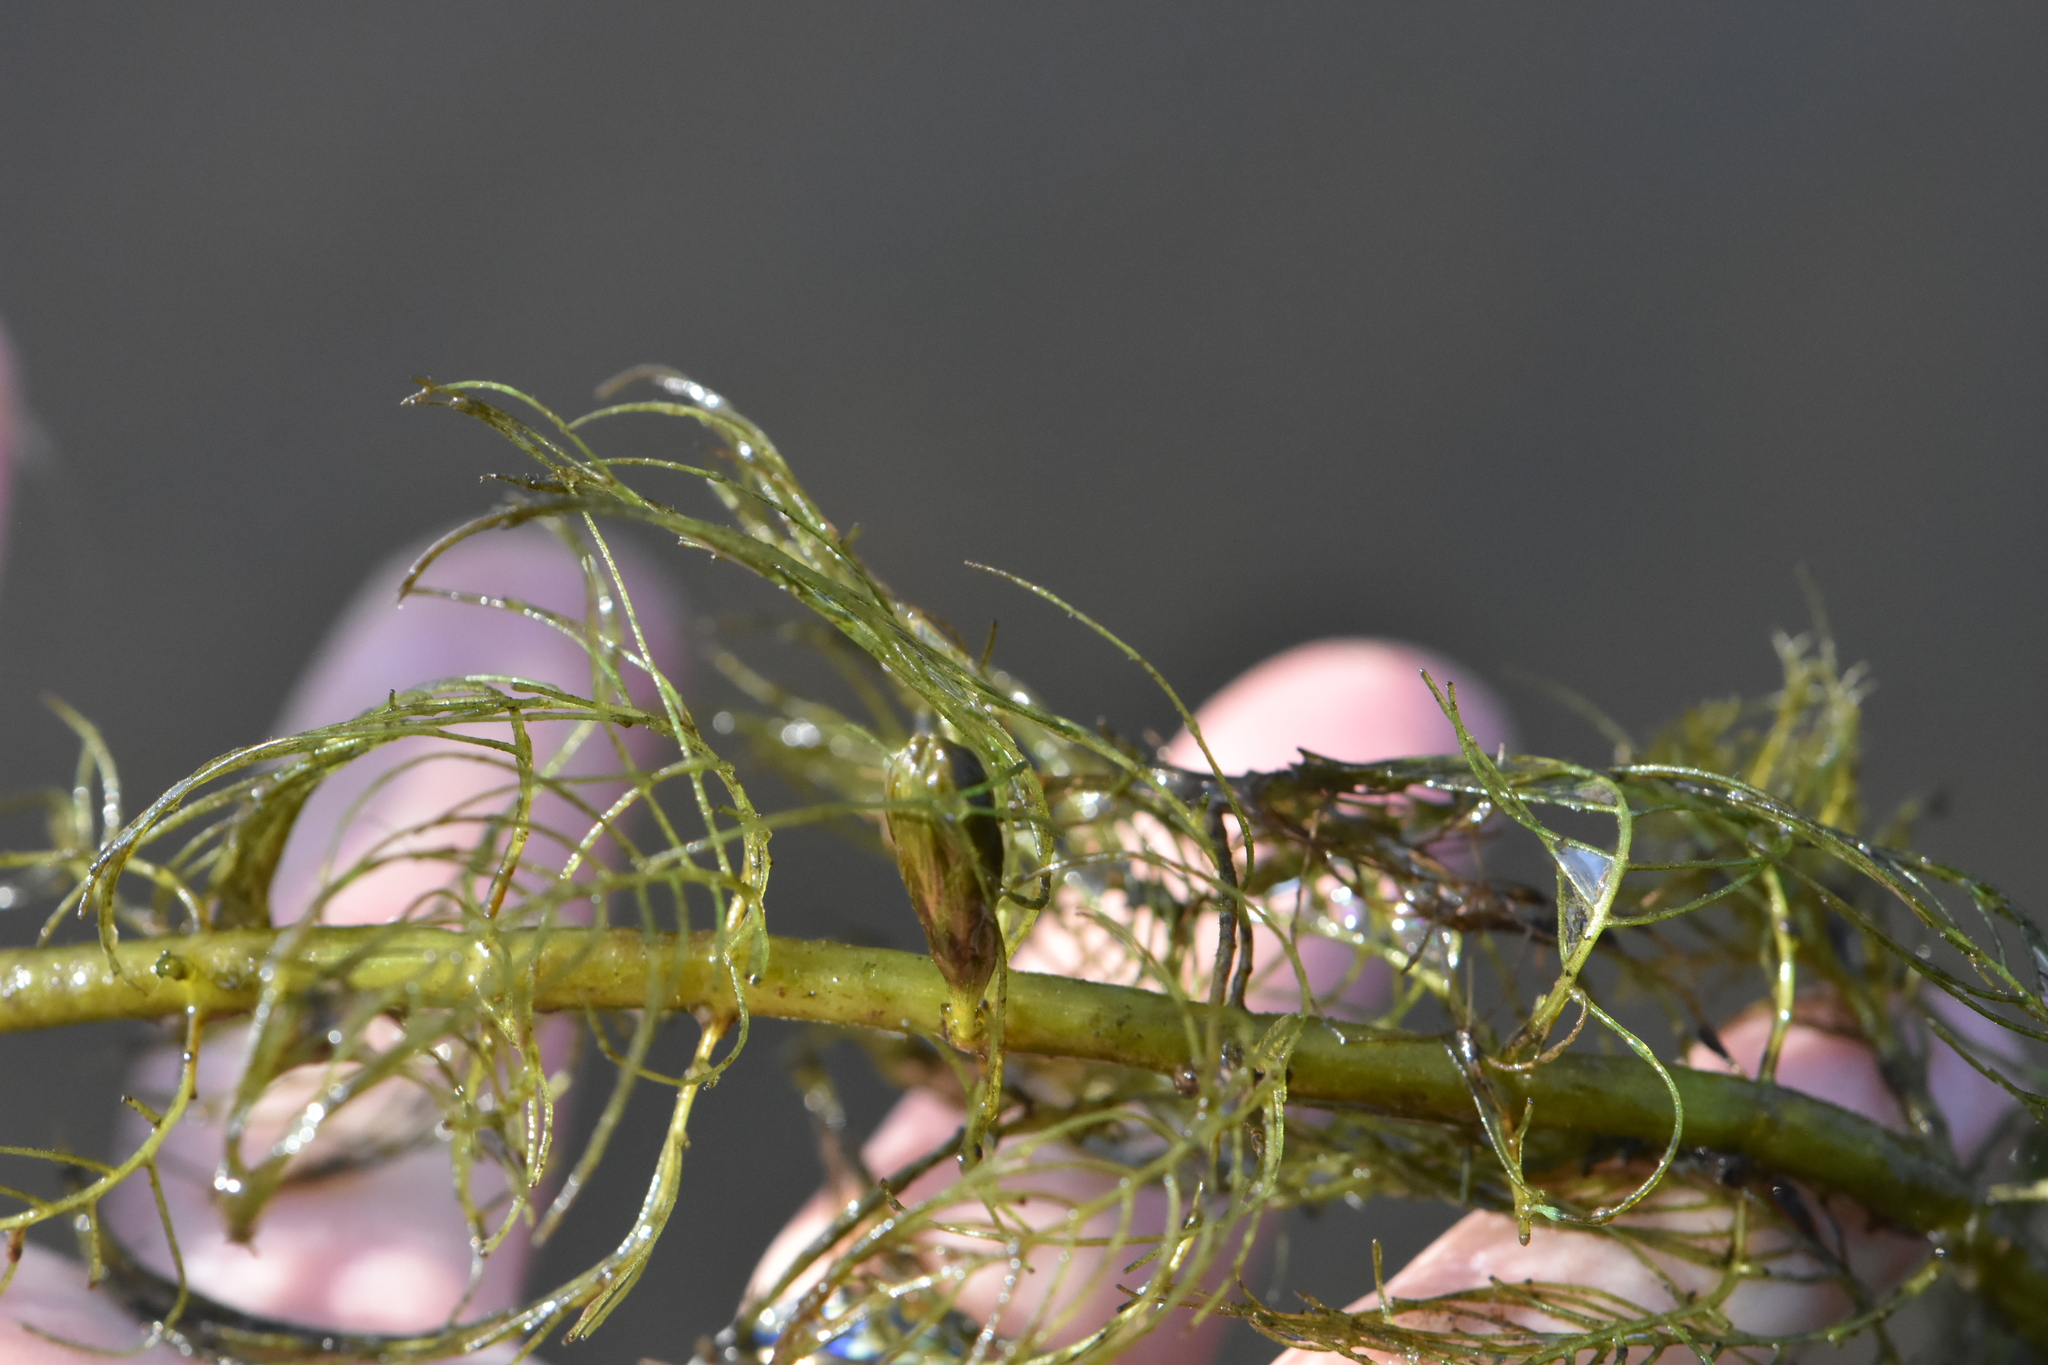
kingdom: Plantae
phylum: Tracheophyta
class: Magnoliopsida
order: Saxifragales
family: Haloragaceae
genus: Myriophyllum
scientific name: Myriophyllum verticillatum
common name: Whorled water-milfoil
